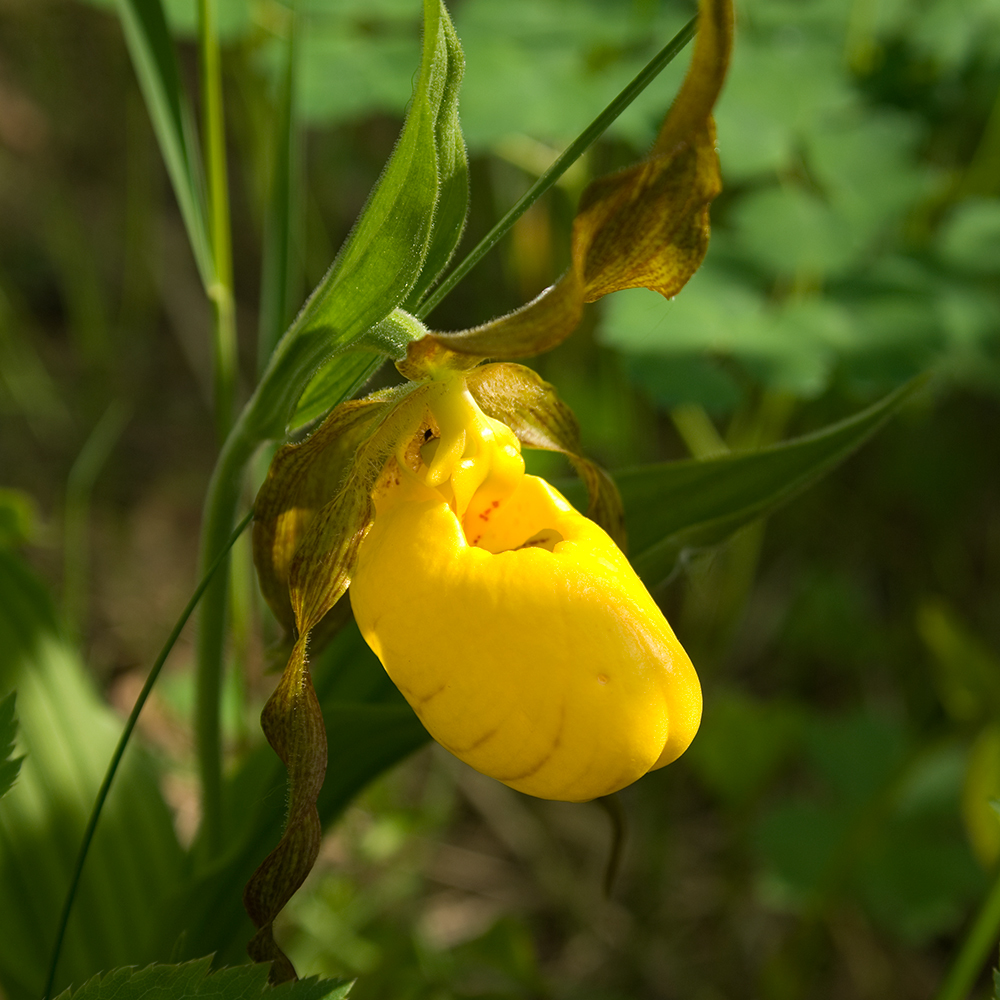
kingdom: Plantae
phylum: Tracheophyta
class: Liliopsida
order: Asparagales
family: Orchidaceae
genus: Cypripedium
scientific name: Cypripedium parviflorum
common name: American yellow lady's-slipper
